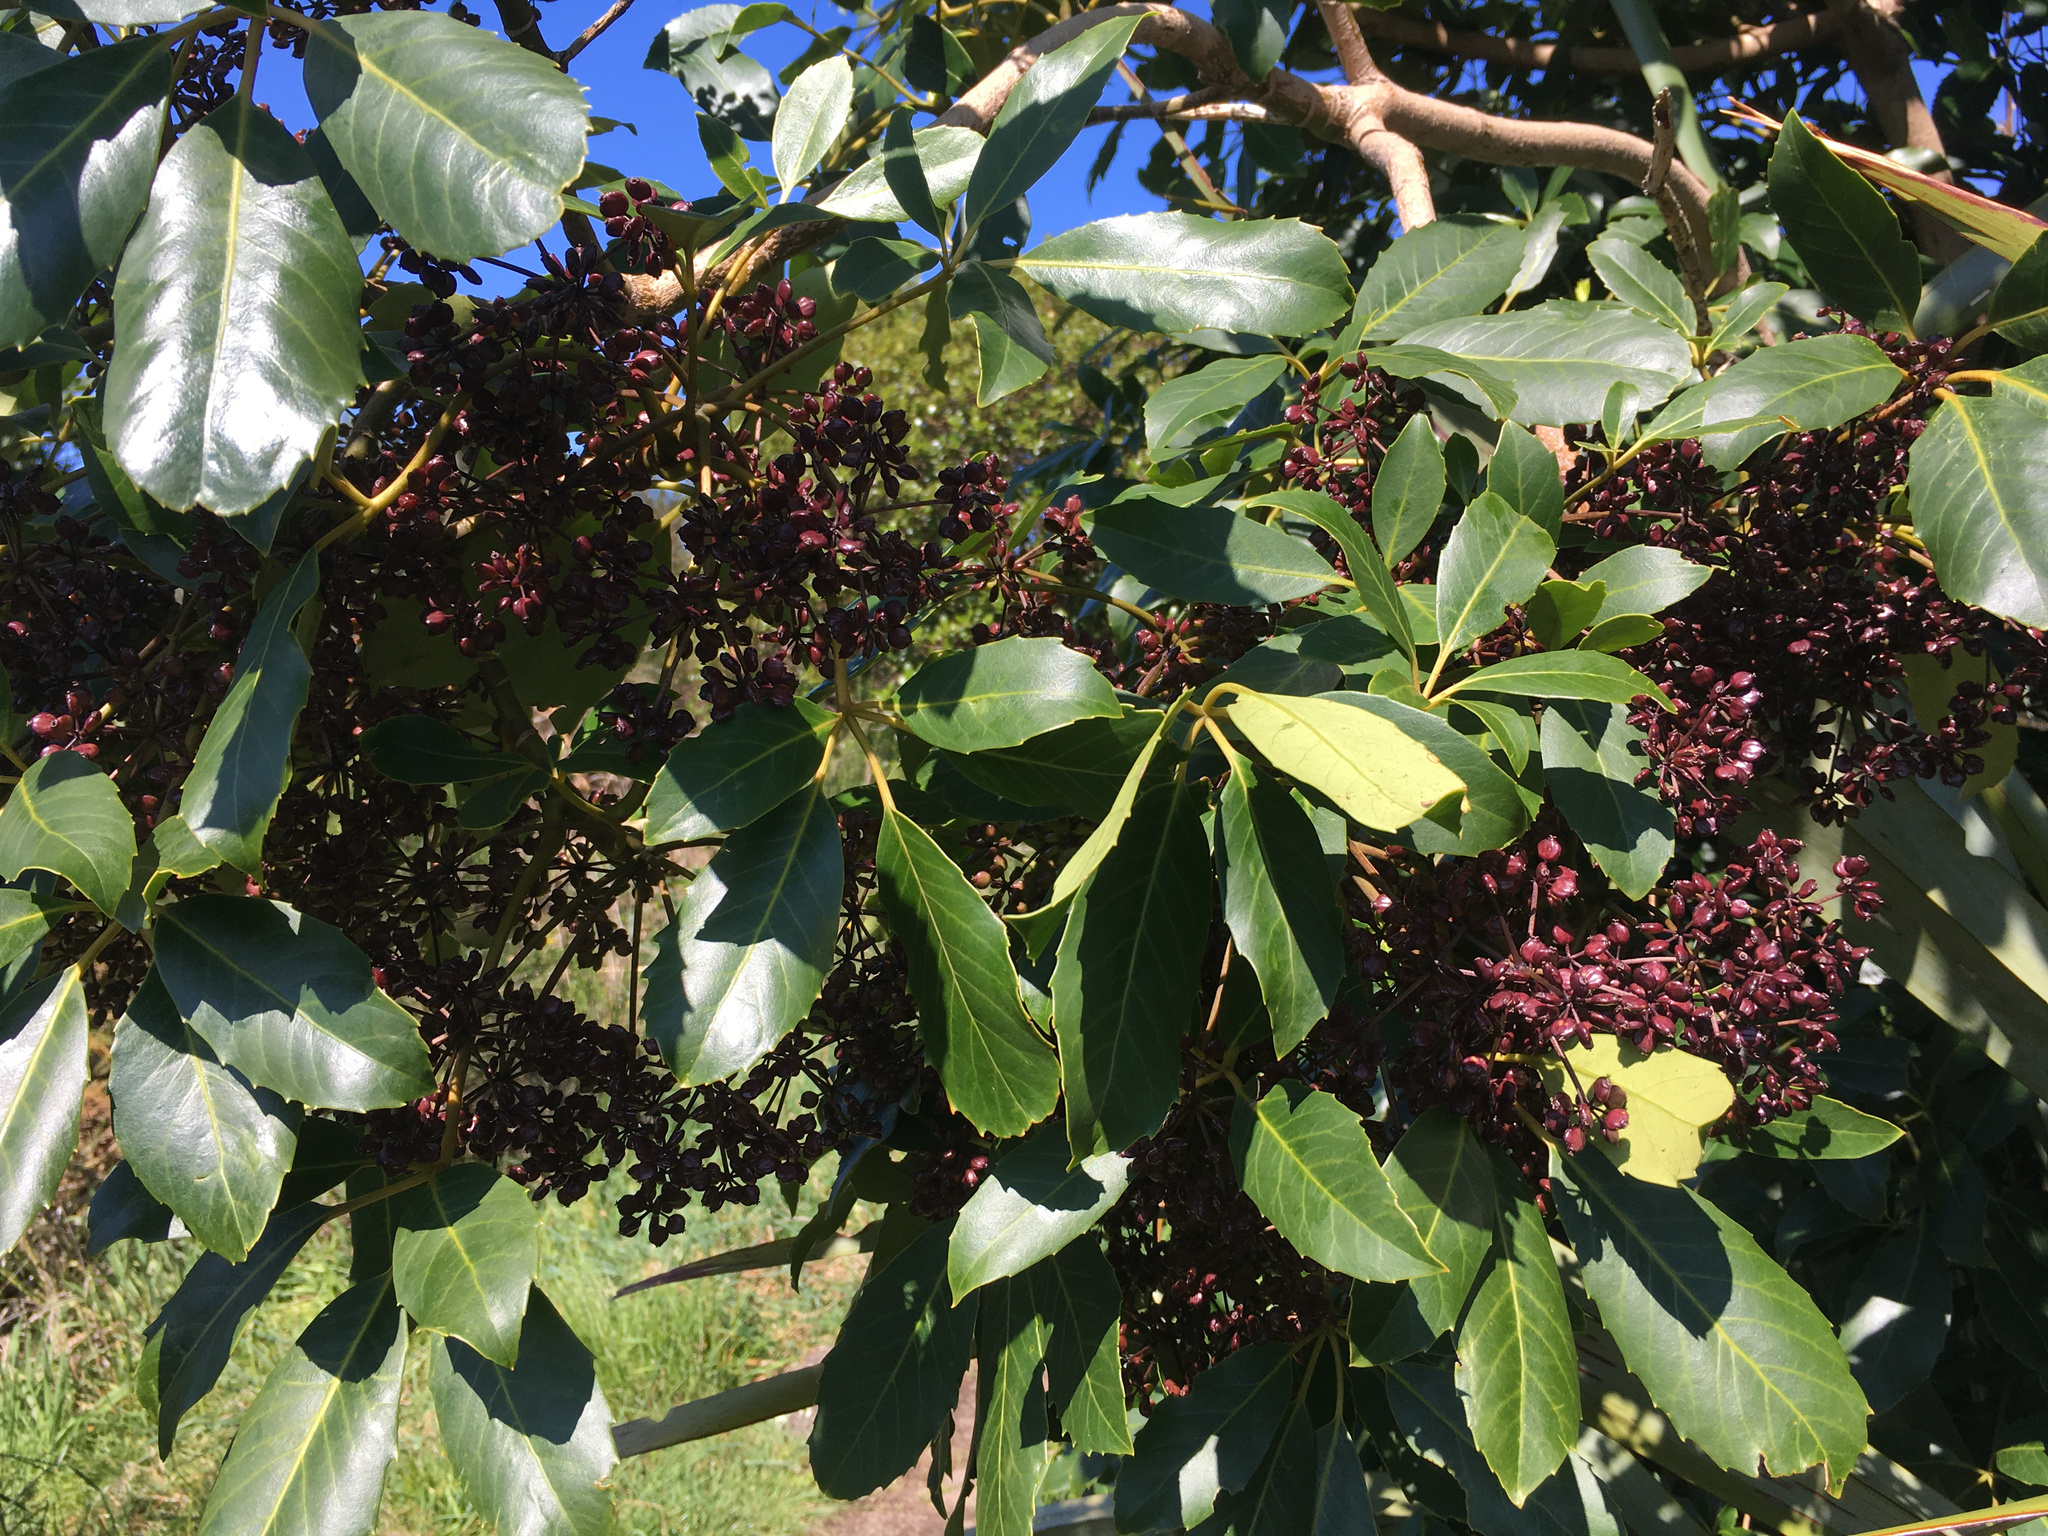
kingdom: Plantae
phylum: Tracheophyta
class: Magnoliopsida
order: Apiales
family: Araliaceae
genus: Neopanax
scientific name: Neopanax arboreus
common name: Five-fingers
